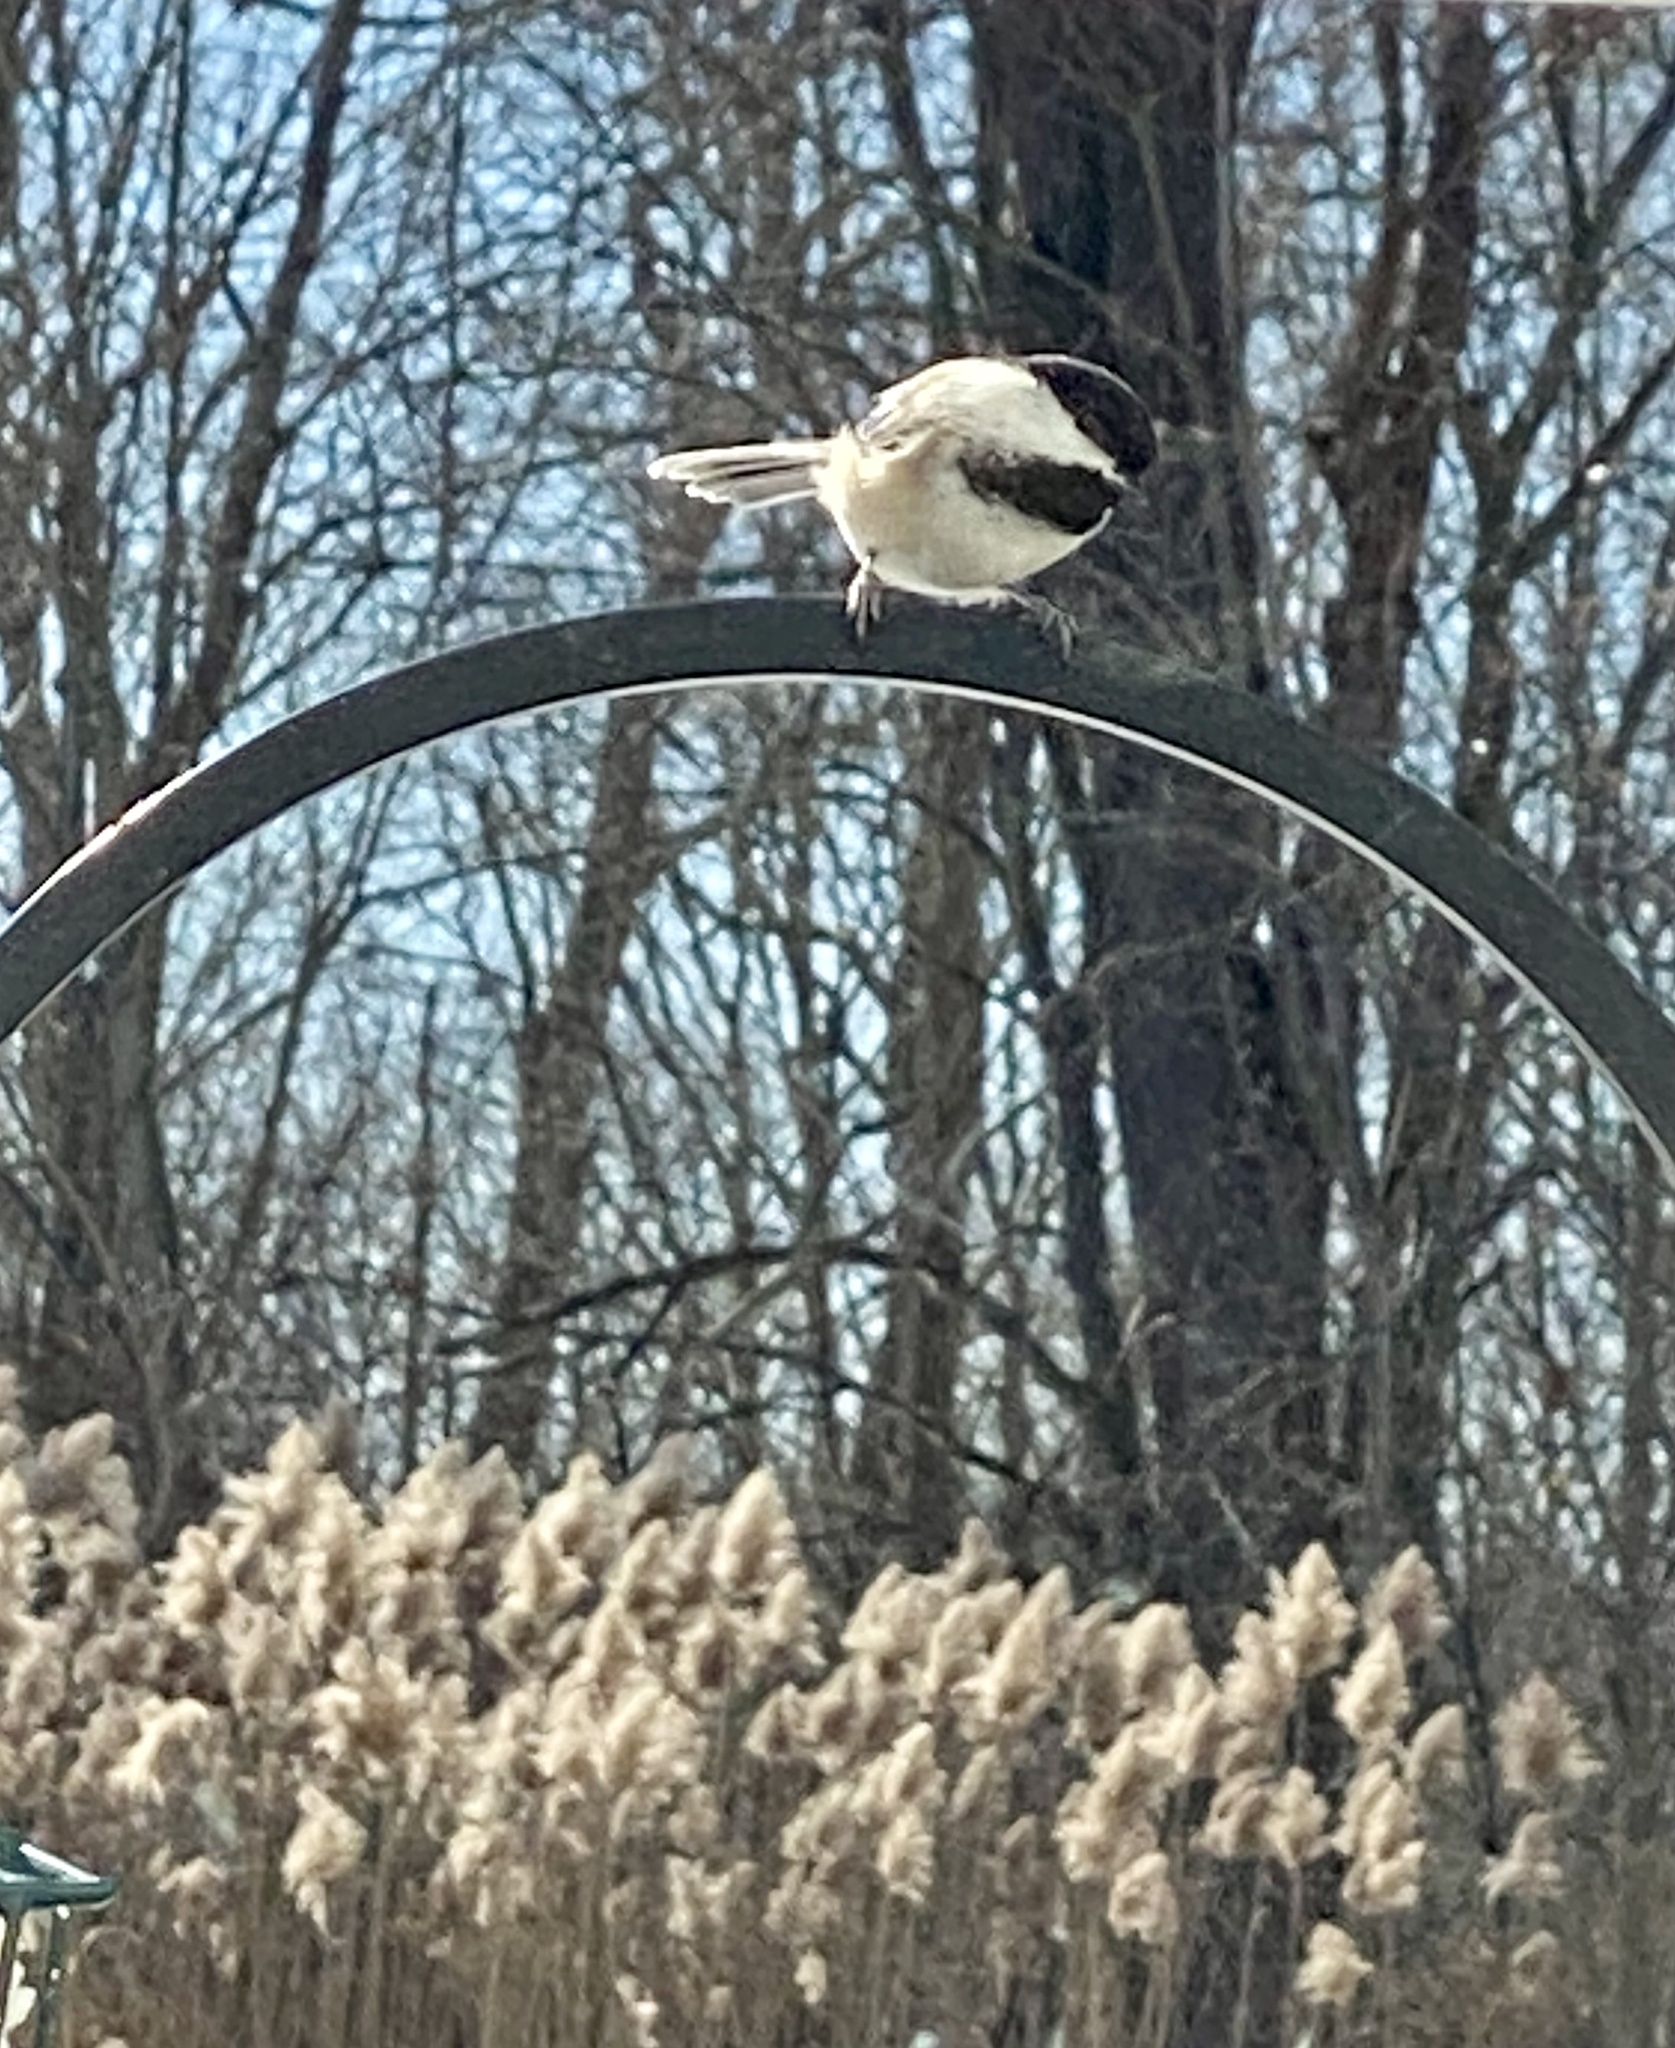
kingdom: Animalia
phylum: Chordata
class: Aves
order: Passeriformes
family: Paridae
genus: Poecile
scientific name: Poecile atricapillus
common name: Black-capped chickadee
